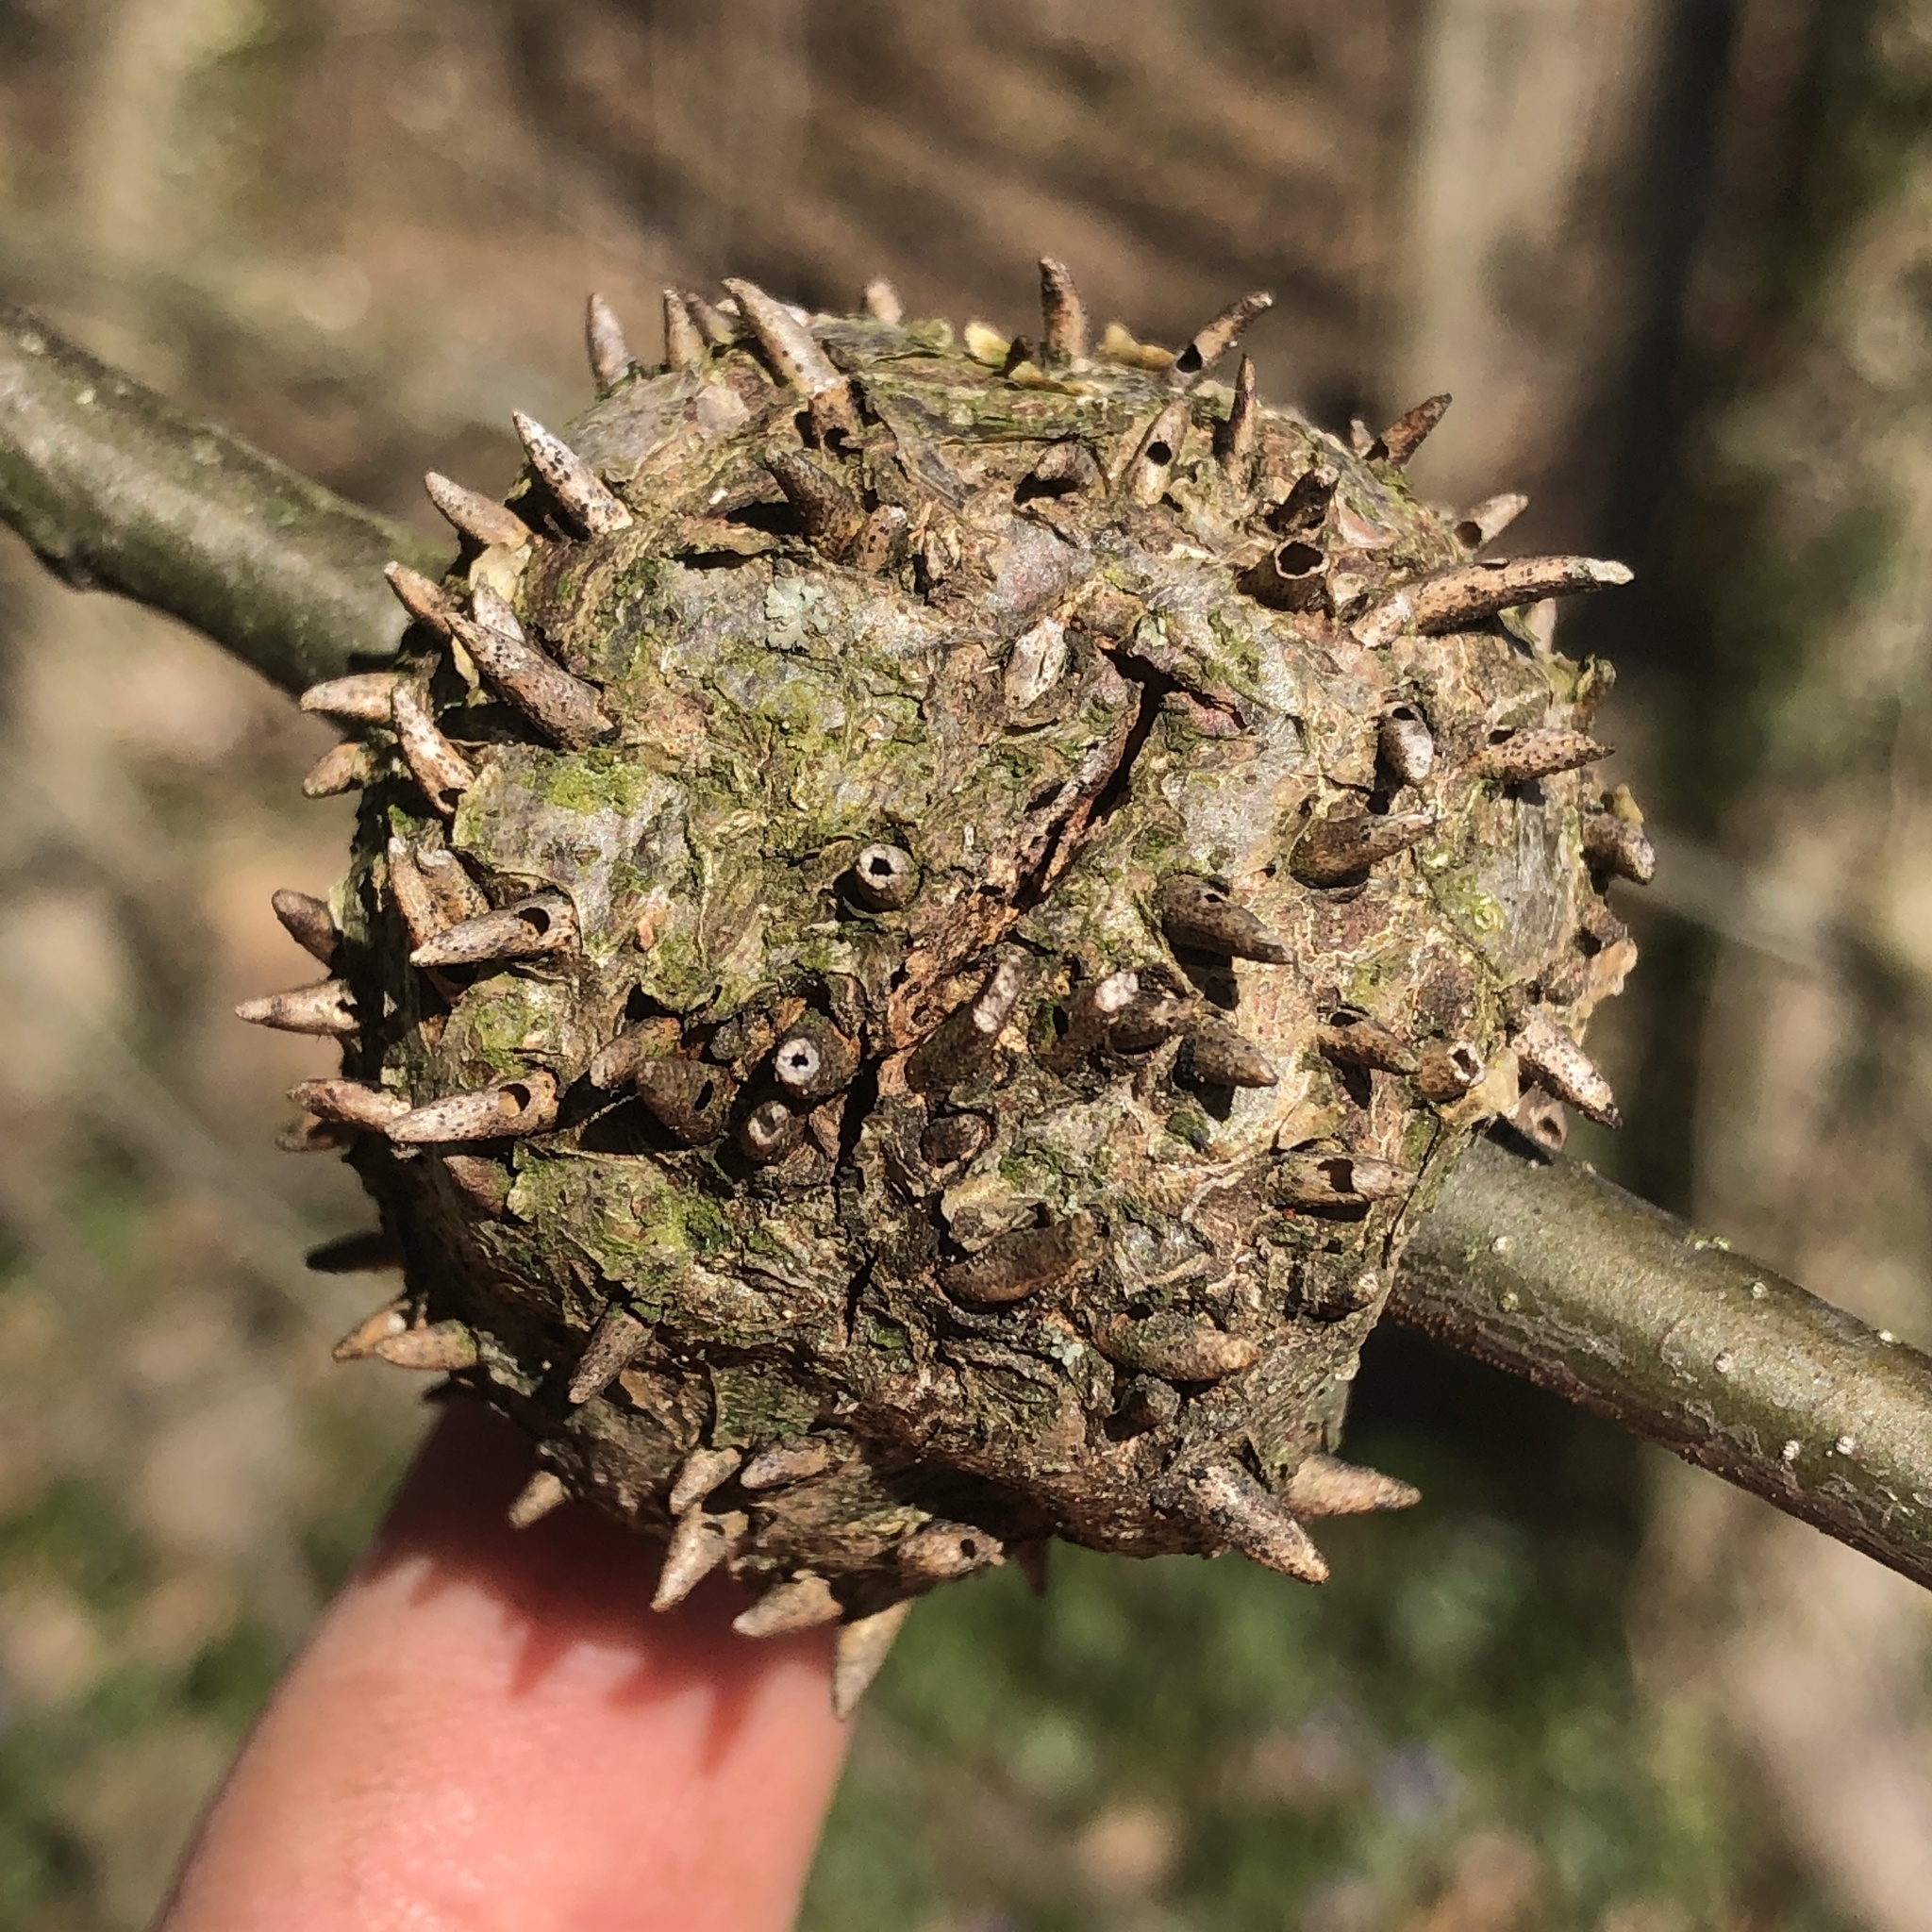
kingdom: Animalia
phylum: Arthropoda
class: Insecta
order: Hymenoptera
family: Cynipidae
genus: Callirhytis
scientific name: Callirhytis
